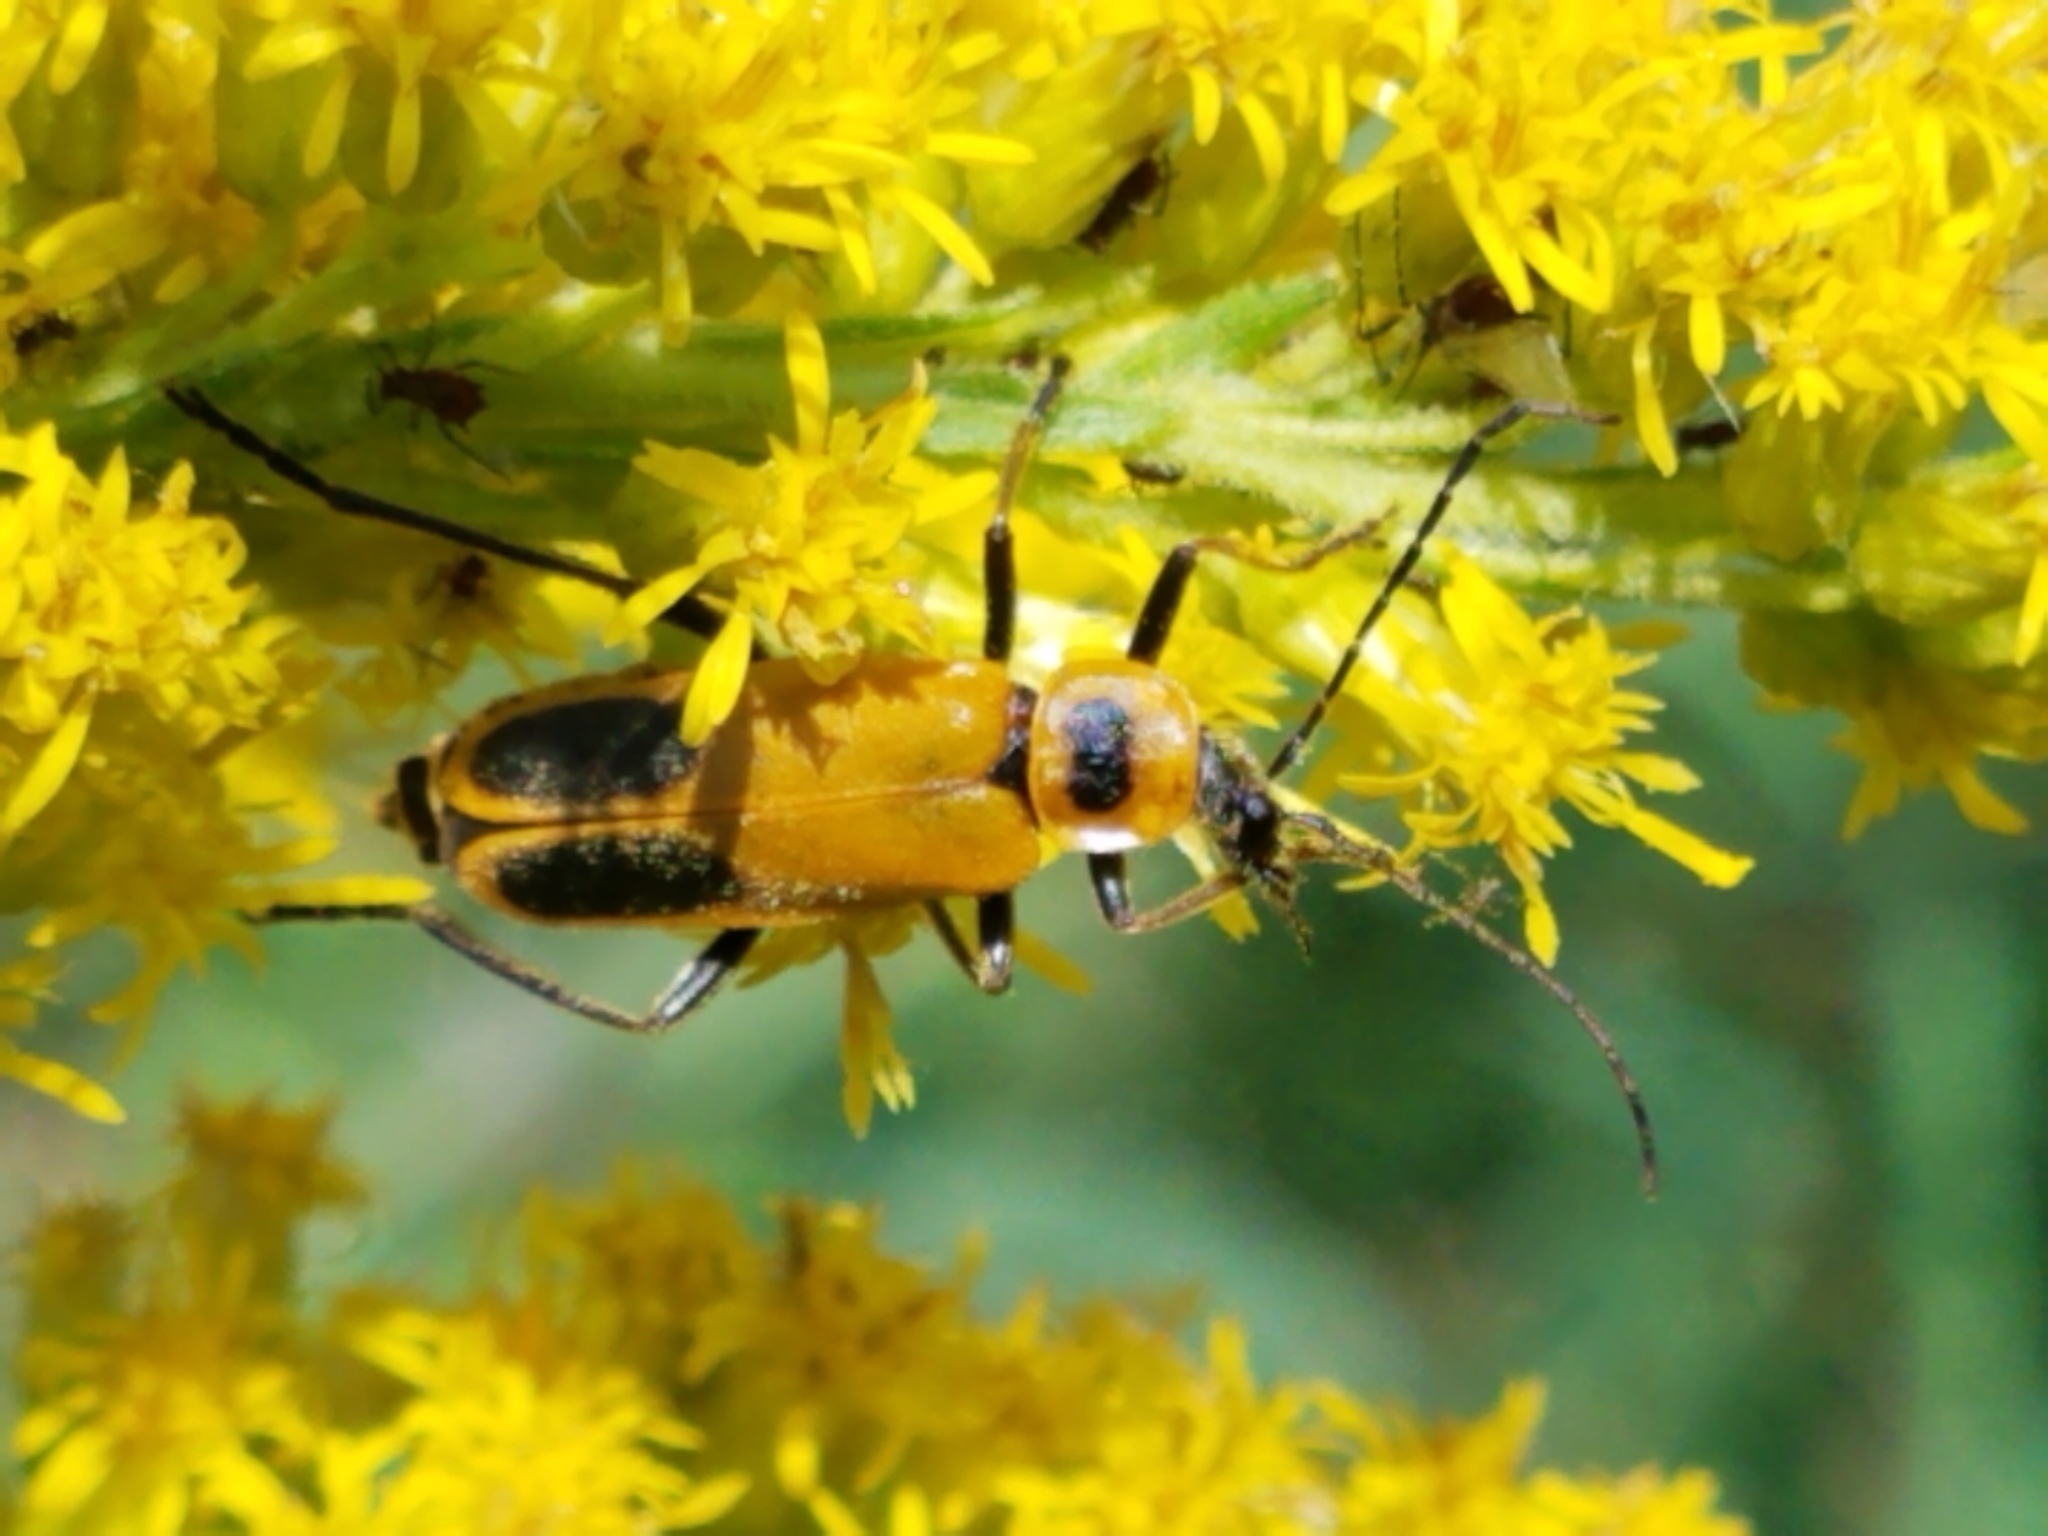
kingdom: Animalia
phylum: Arthropoda
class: Insecta
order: Coleoptera
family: Cantharidae
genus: Chauliognathus
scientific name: Chauliognathus pensylvanicus
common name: Goldenrod soldier beetle
